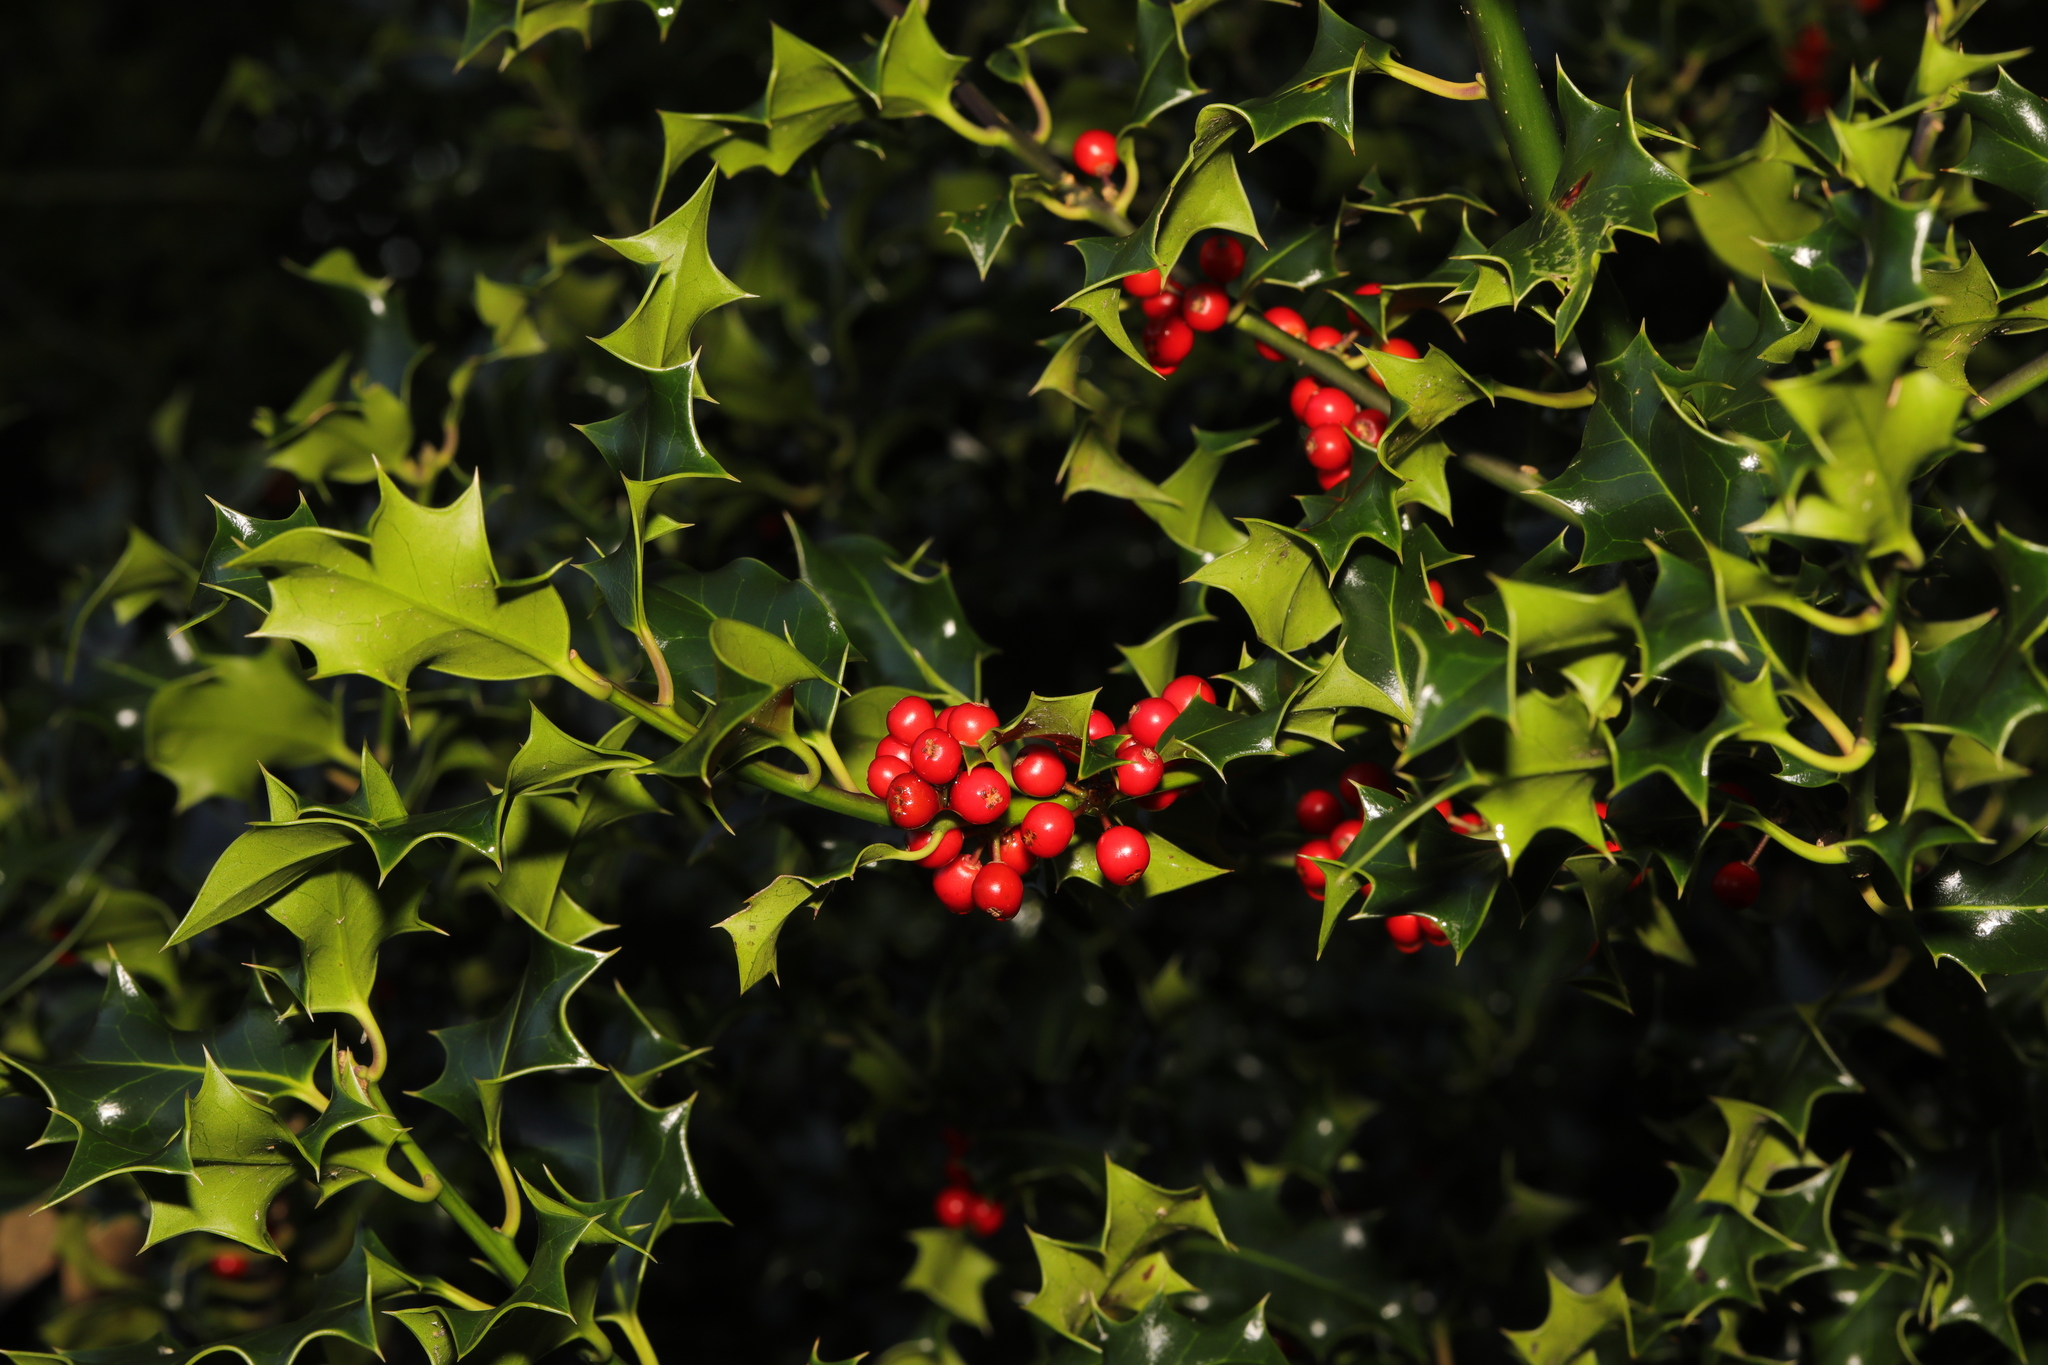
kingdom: Plantae
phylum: Tracheophyta
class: Magnoliopsida
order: Aquifoliales
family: Aquifoliaceae
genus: Ilex
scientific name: Ilex aquifolium
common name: English holly
